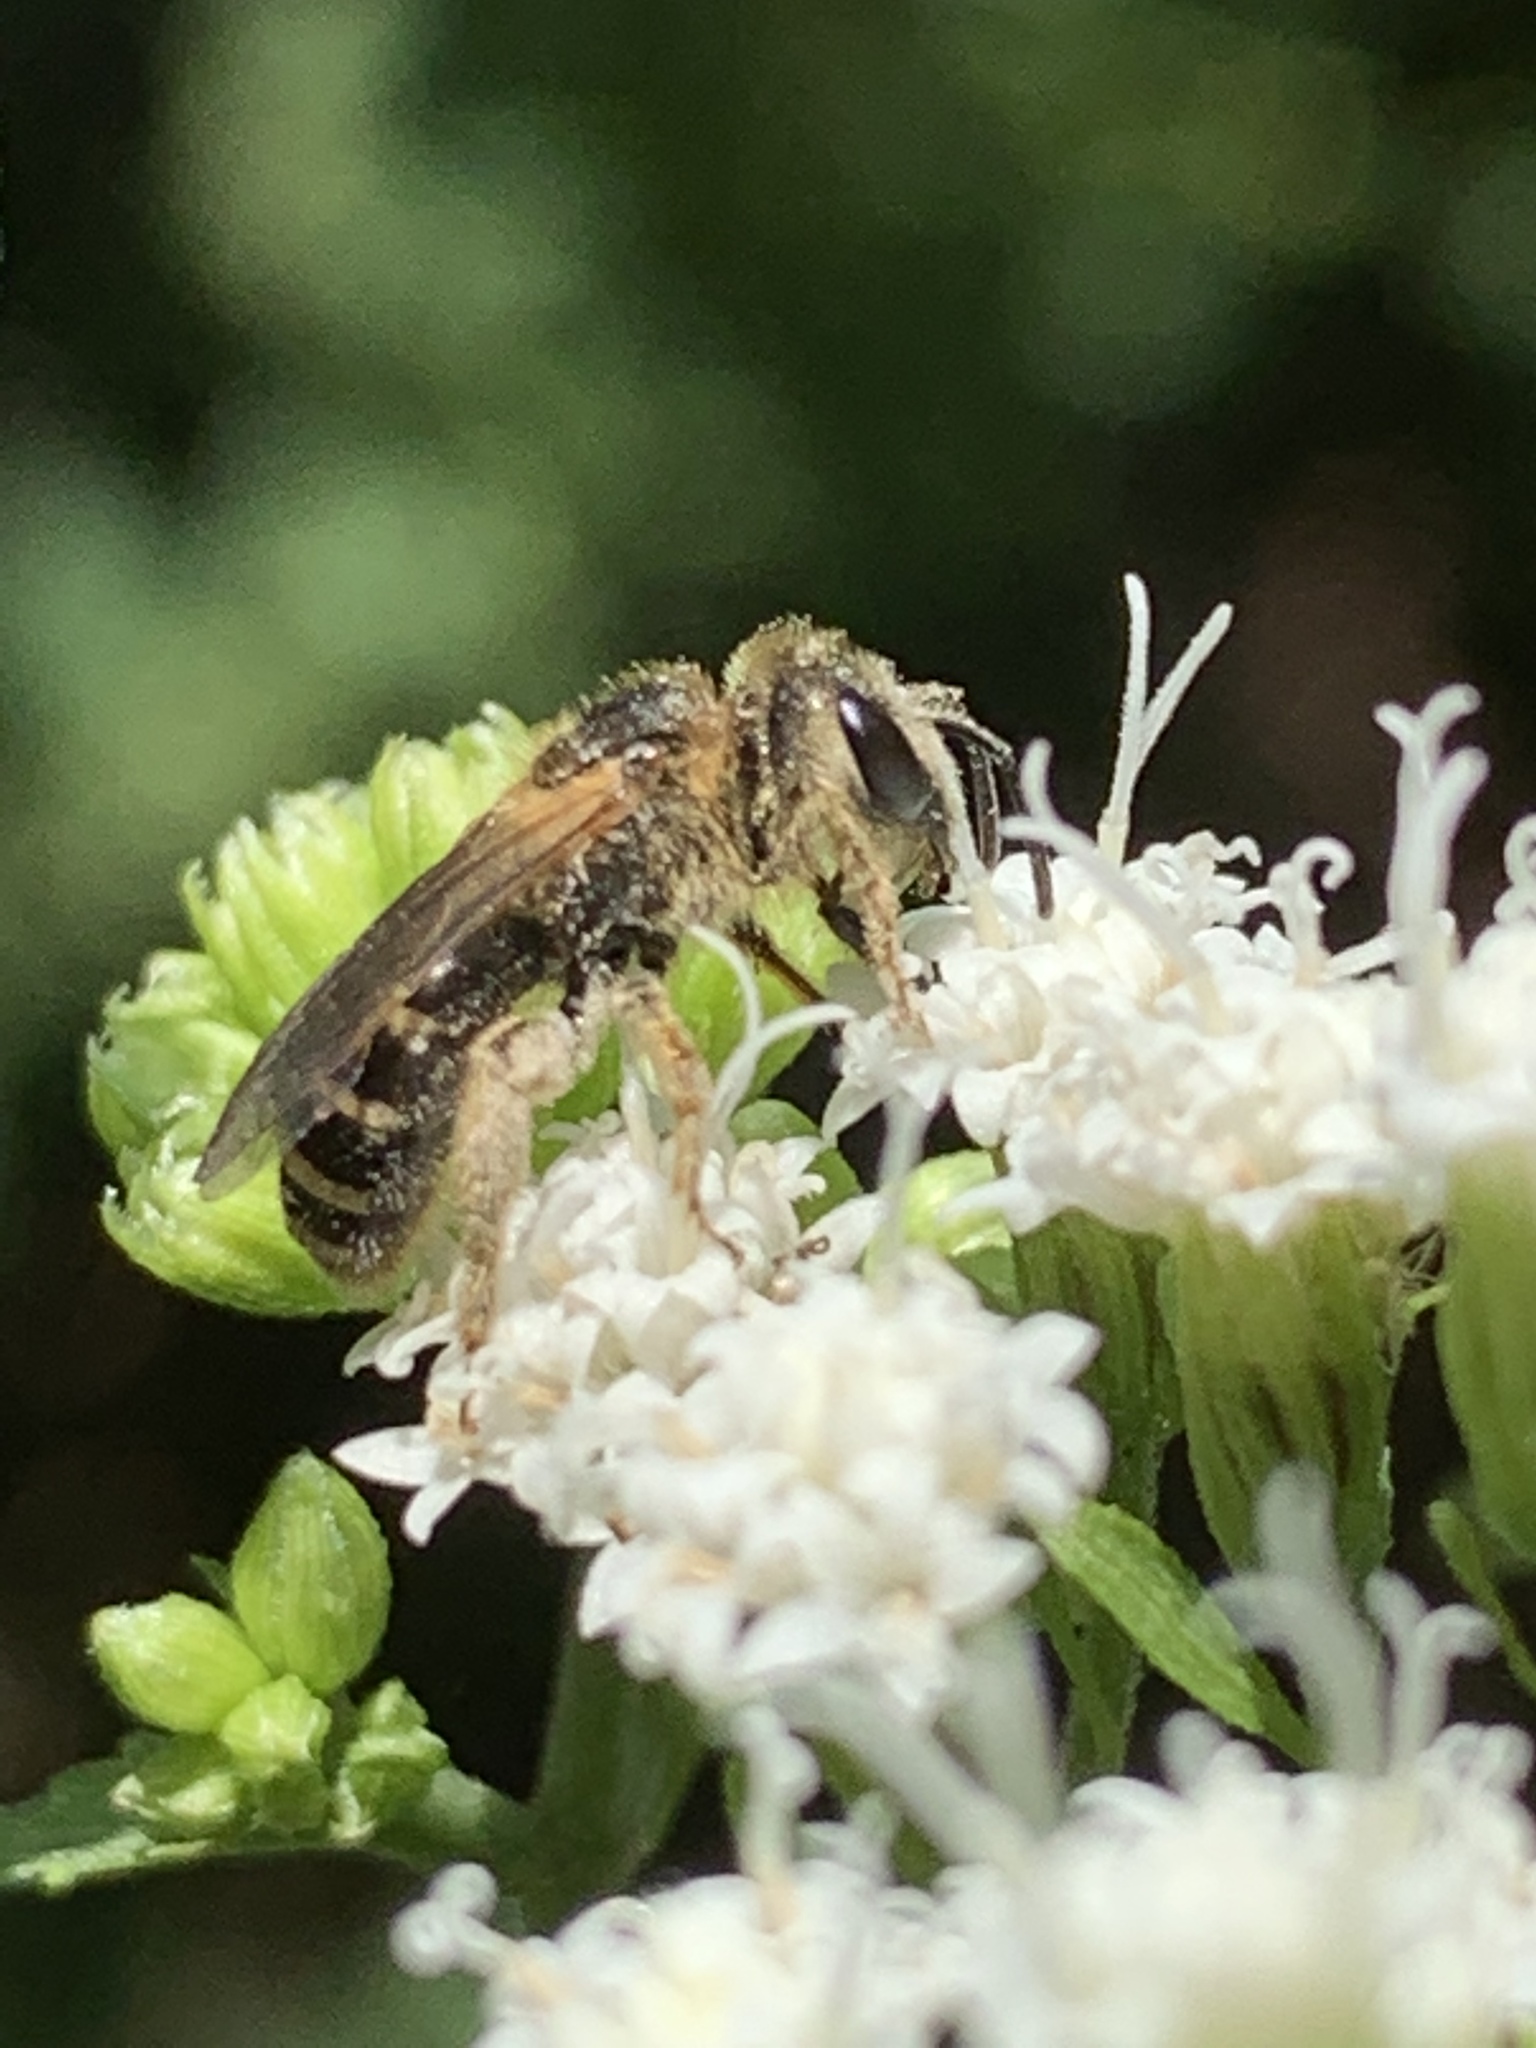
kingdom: Animalia
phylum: Arthropoda
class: Insecta
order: Hymenoptera
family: Halictidae
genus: Halictus
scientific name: Halictus ligatus
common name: Ligated furrow bee
